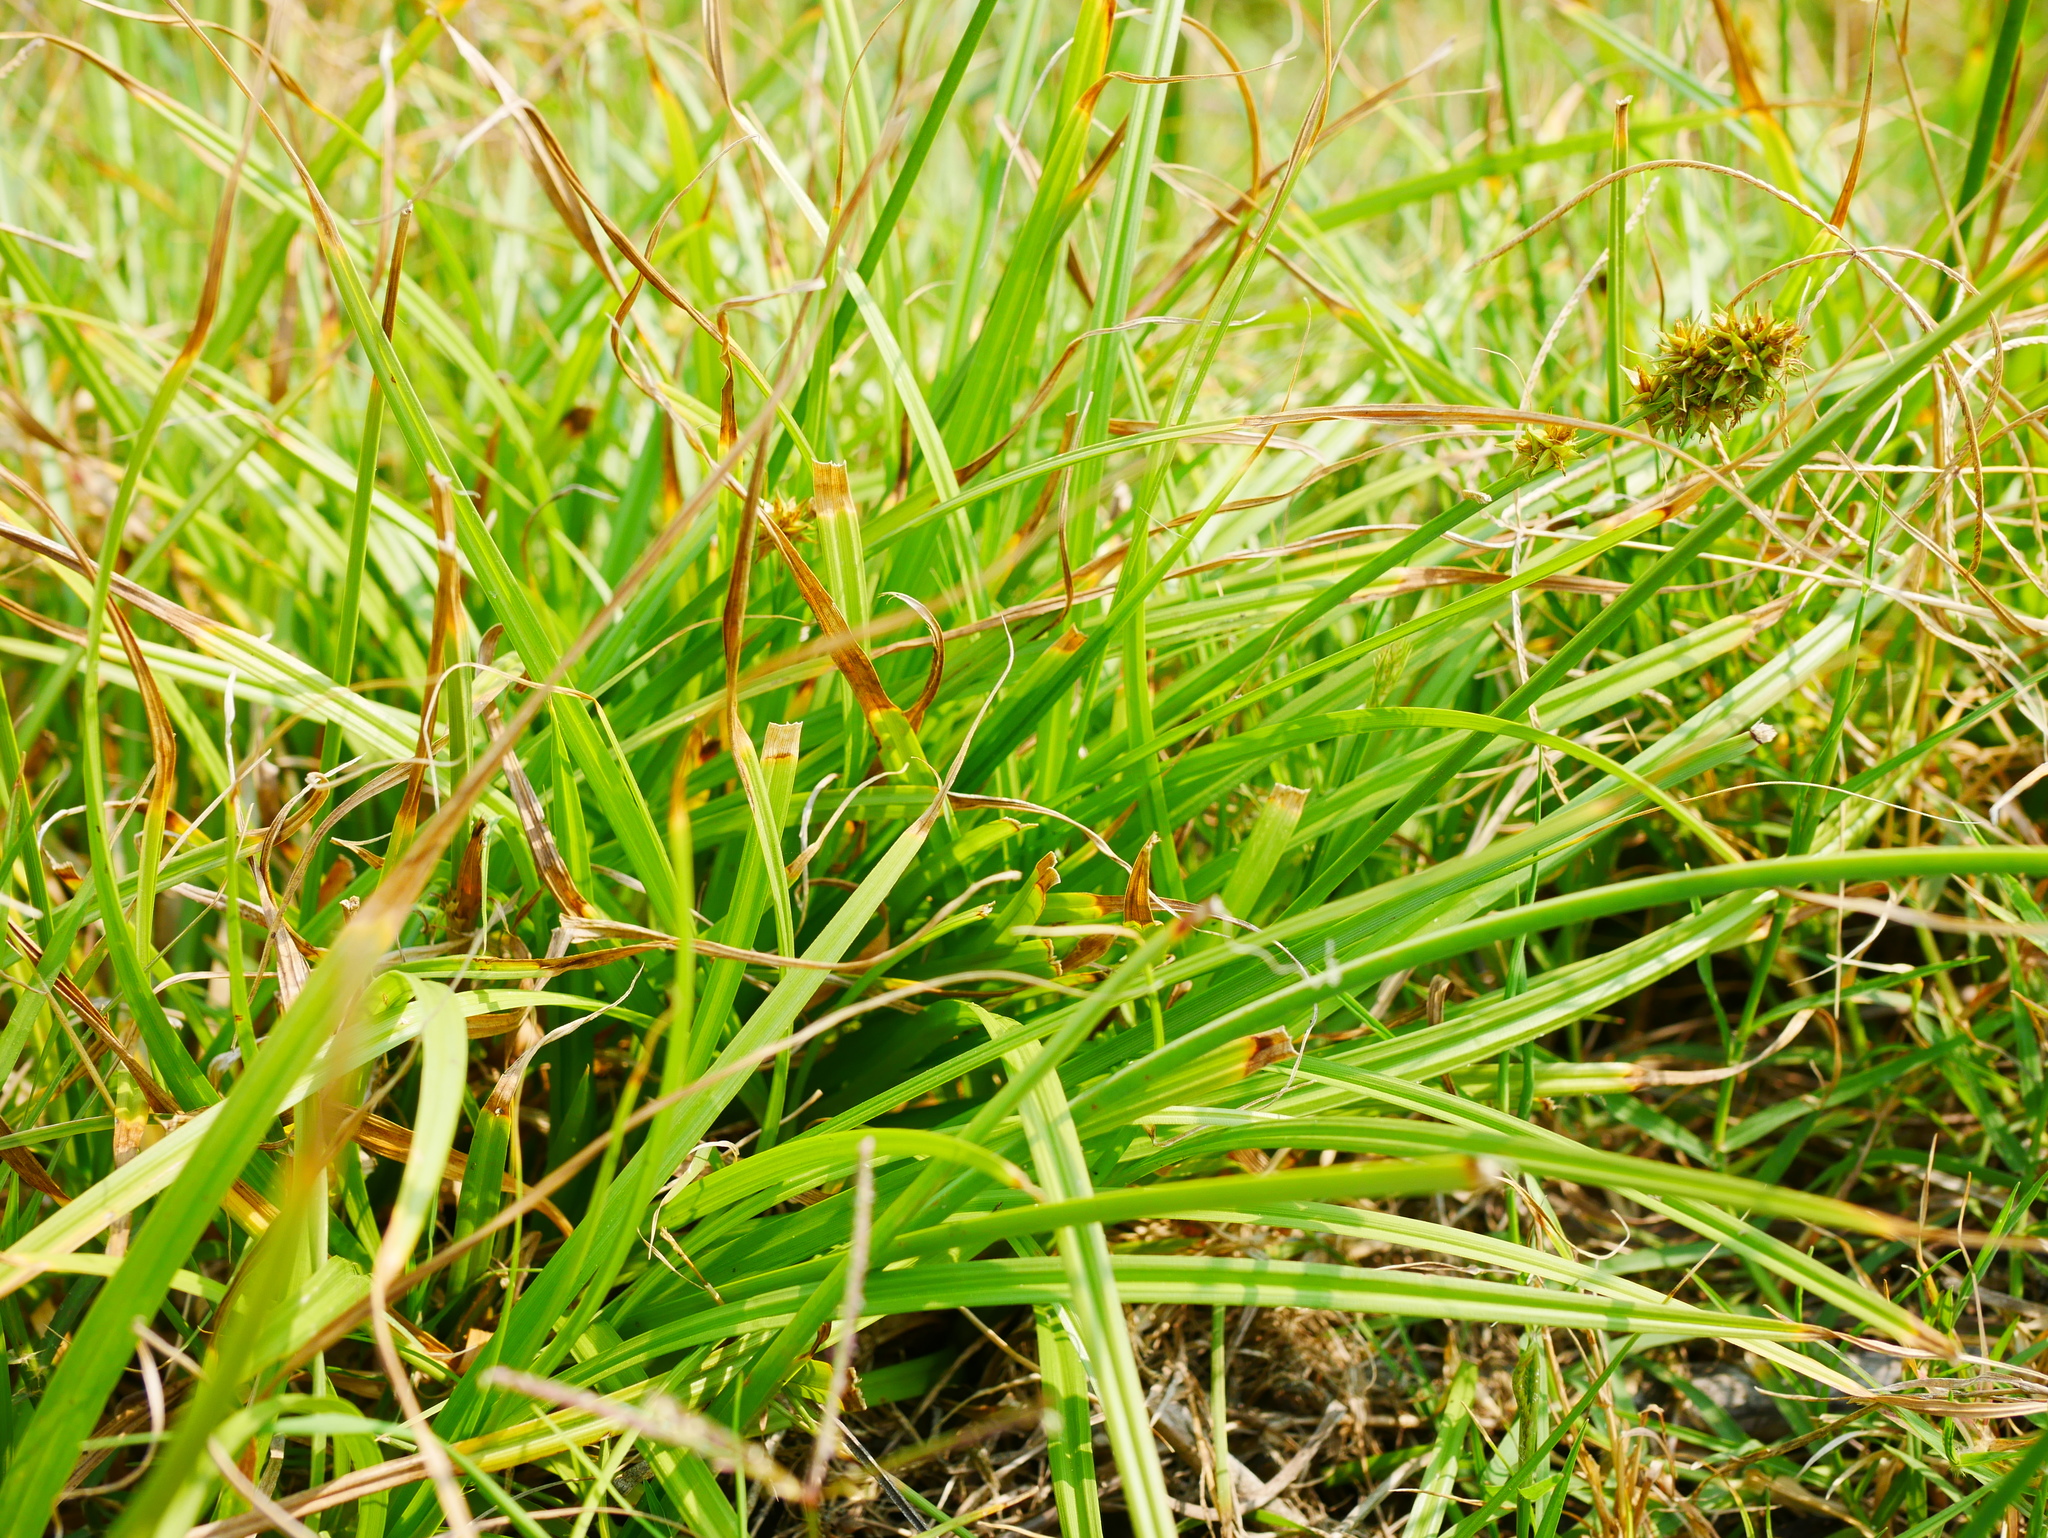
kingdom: Plantae
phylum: Tracheophyta
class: Liliopsida
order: Poales
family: Cyperaceae
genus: Carex
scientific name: Carex otrubae
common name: False fox-sedge
